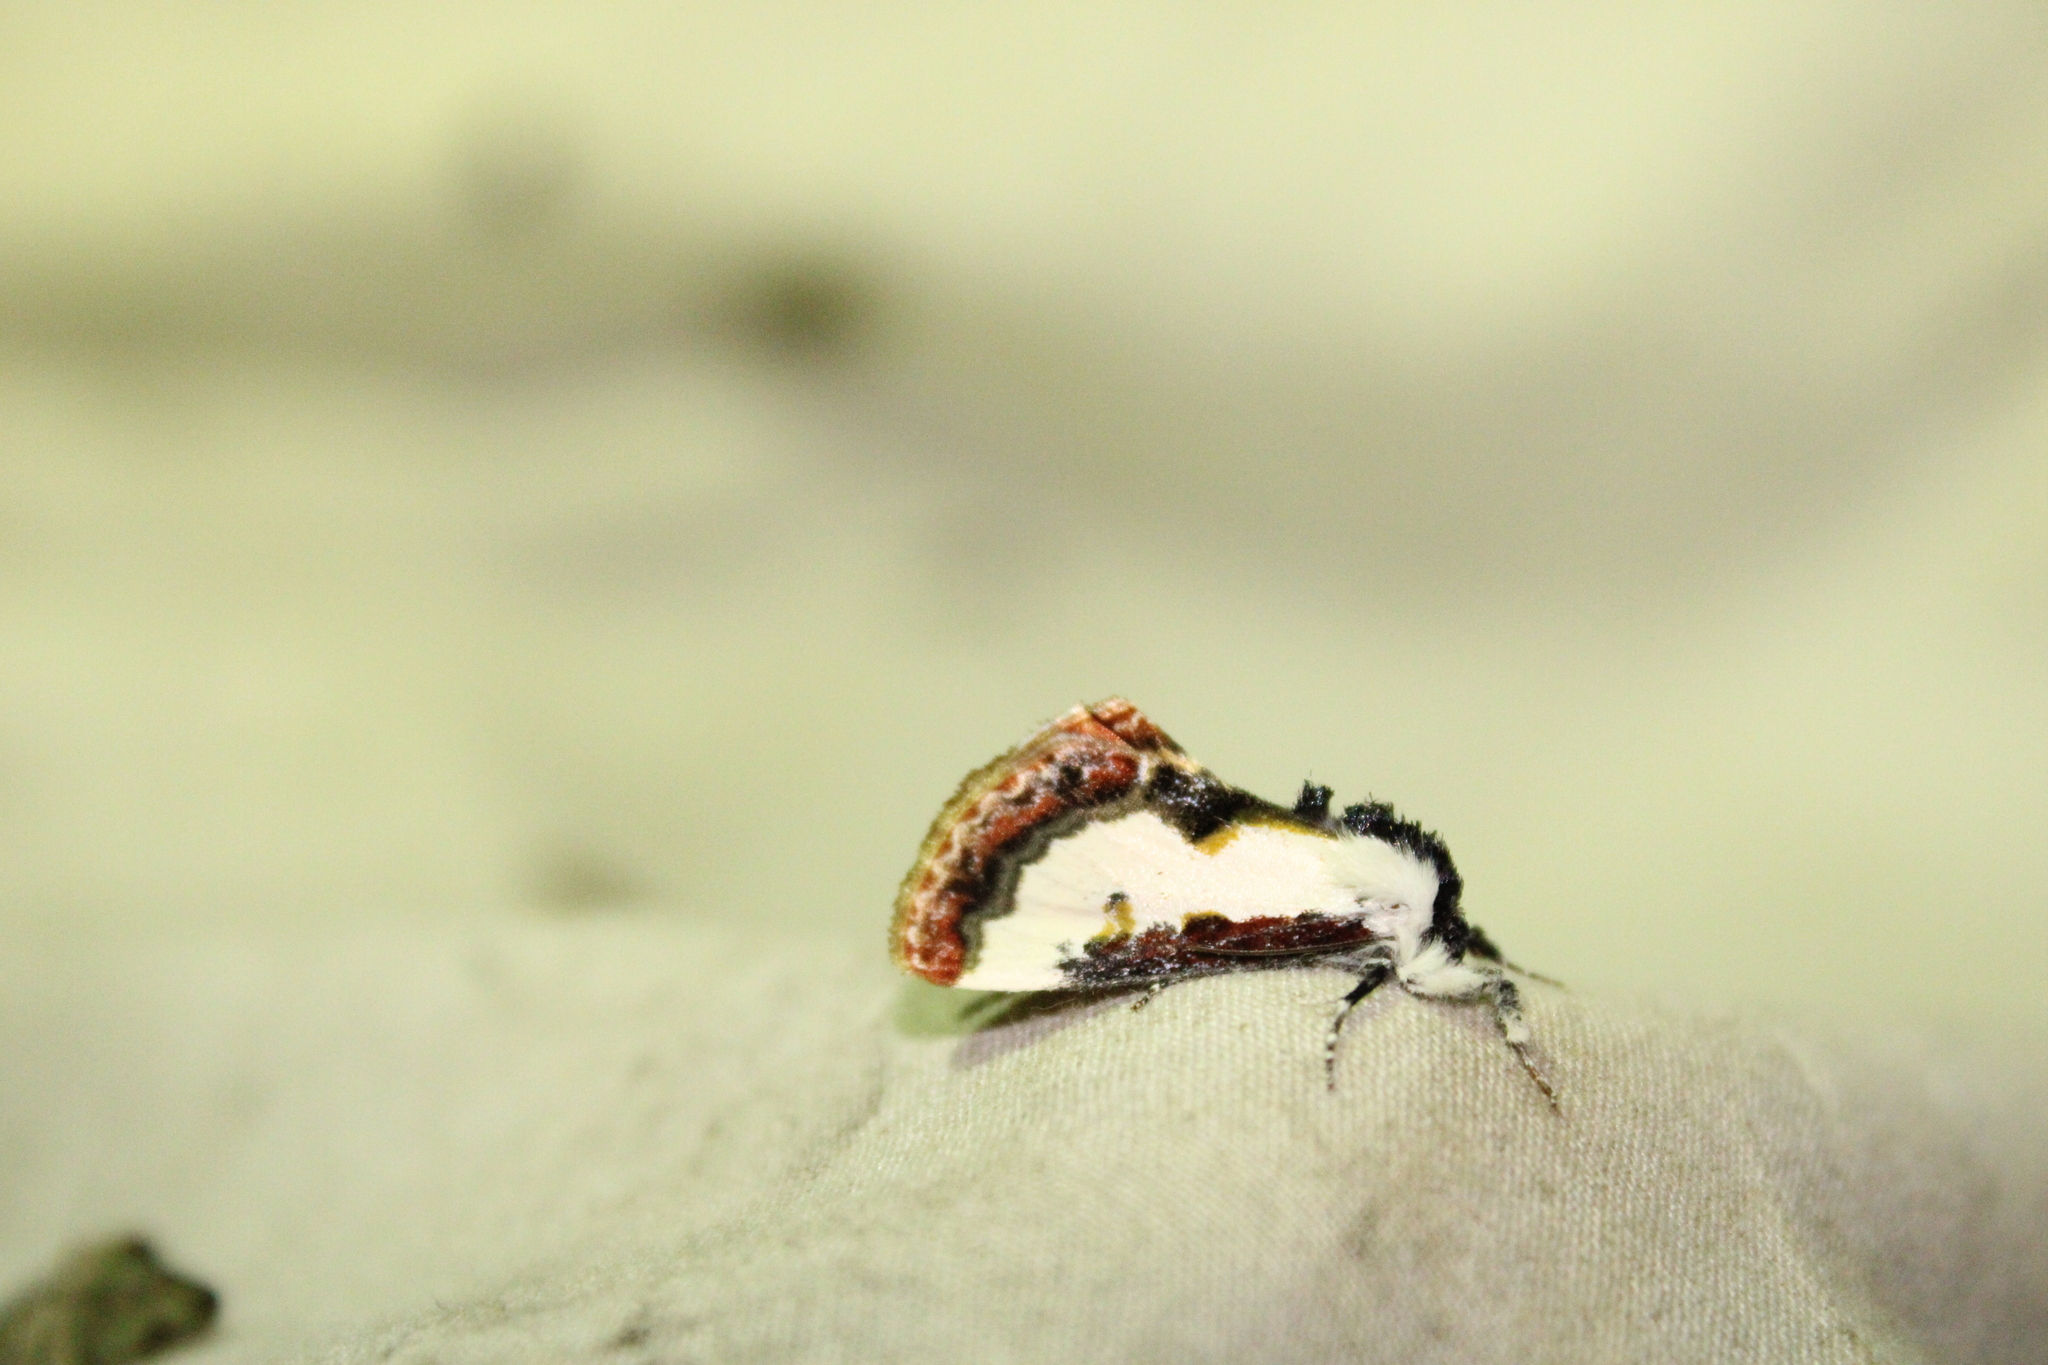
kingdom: Animalia
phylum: Arthropoda
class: Insecta
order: Lepidoptera
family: Noctuidae
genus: Eudryas
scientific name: Eudryas unio
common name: Pearly wood-nymph
